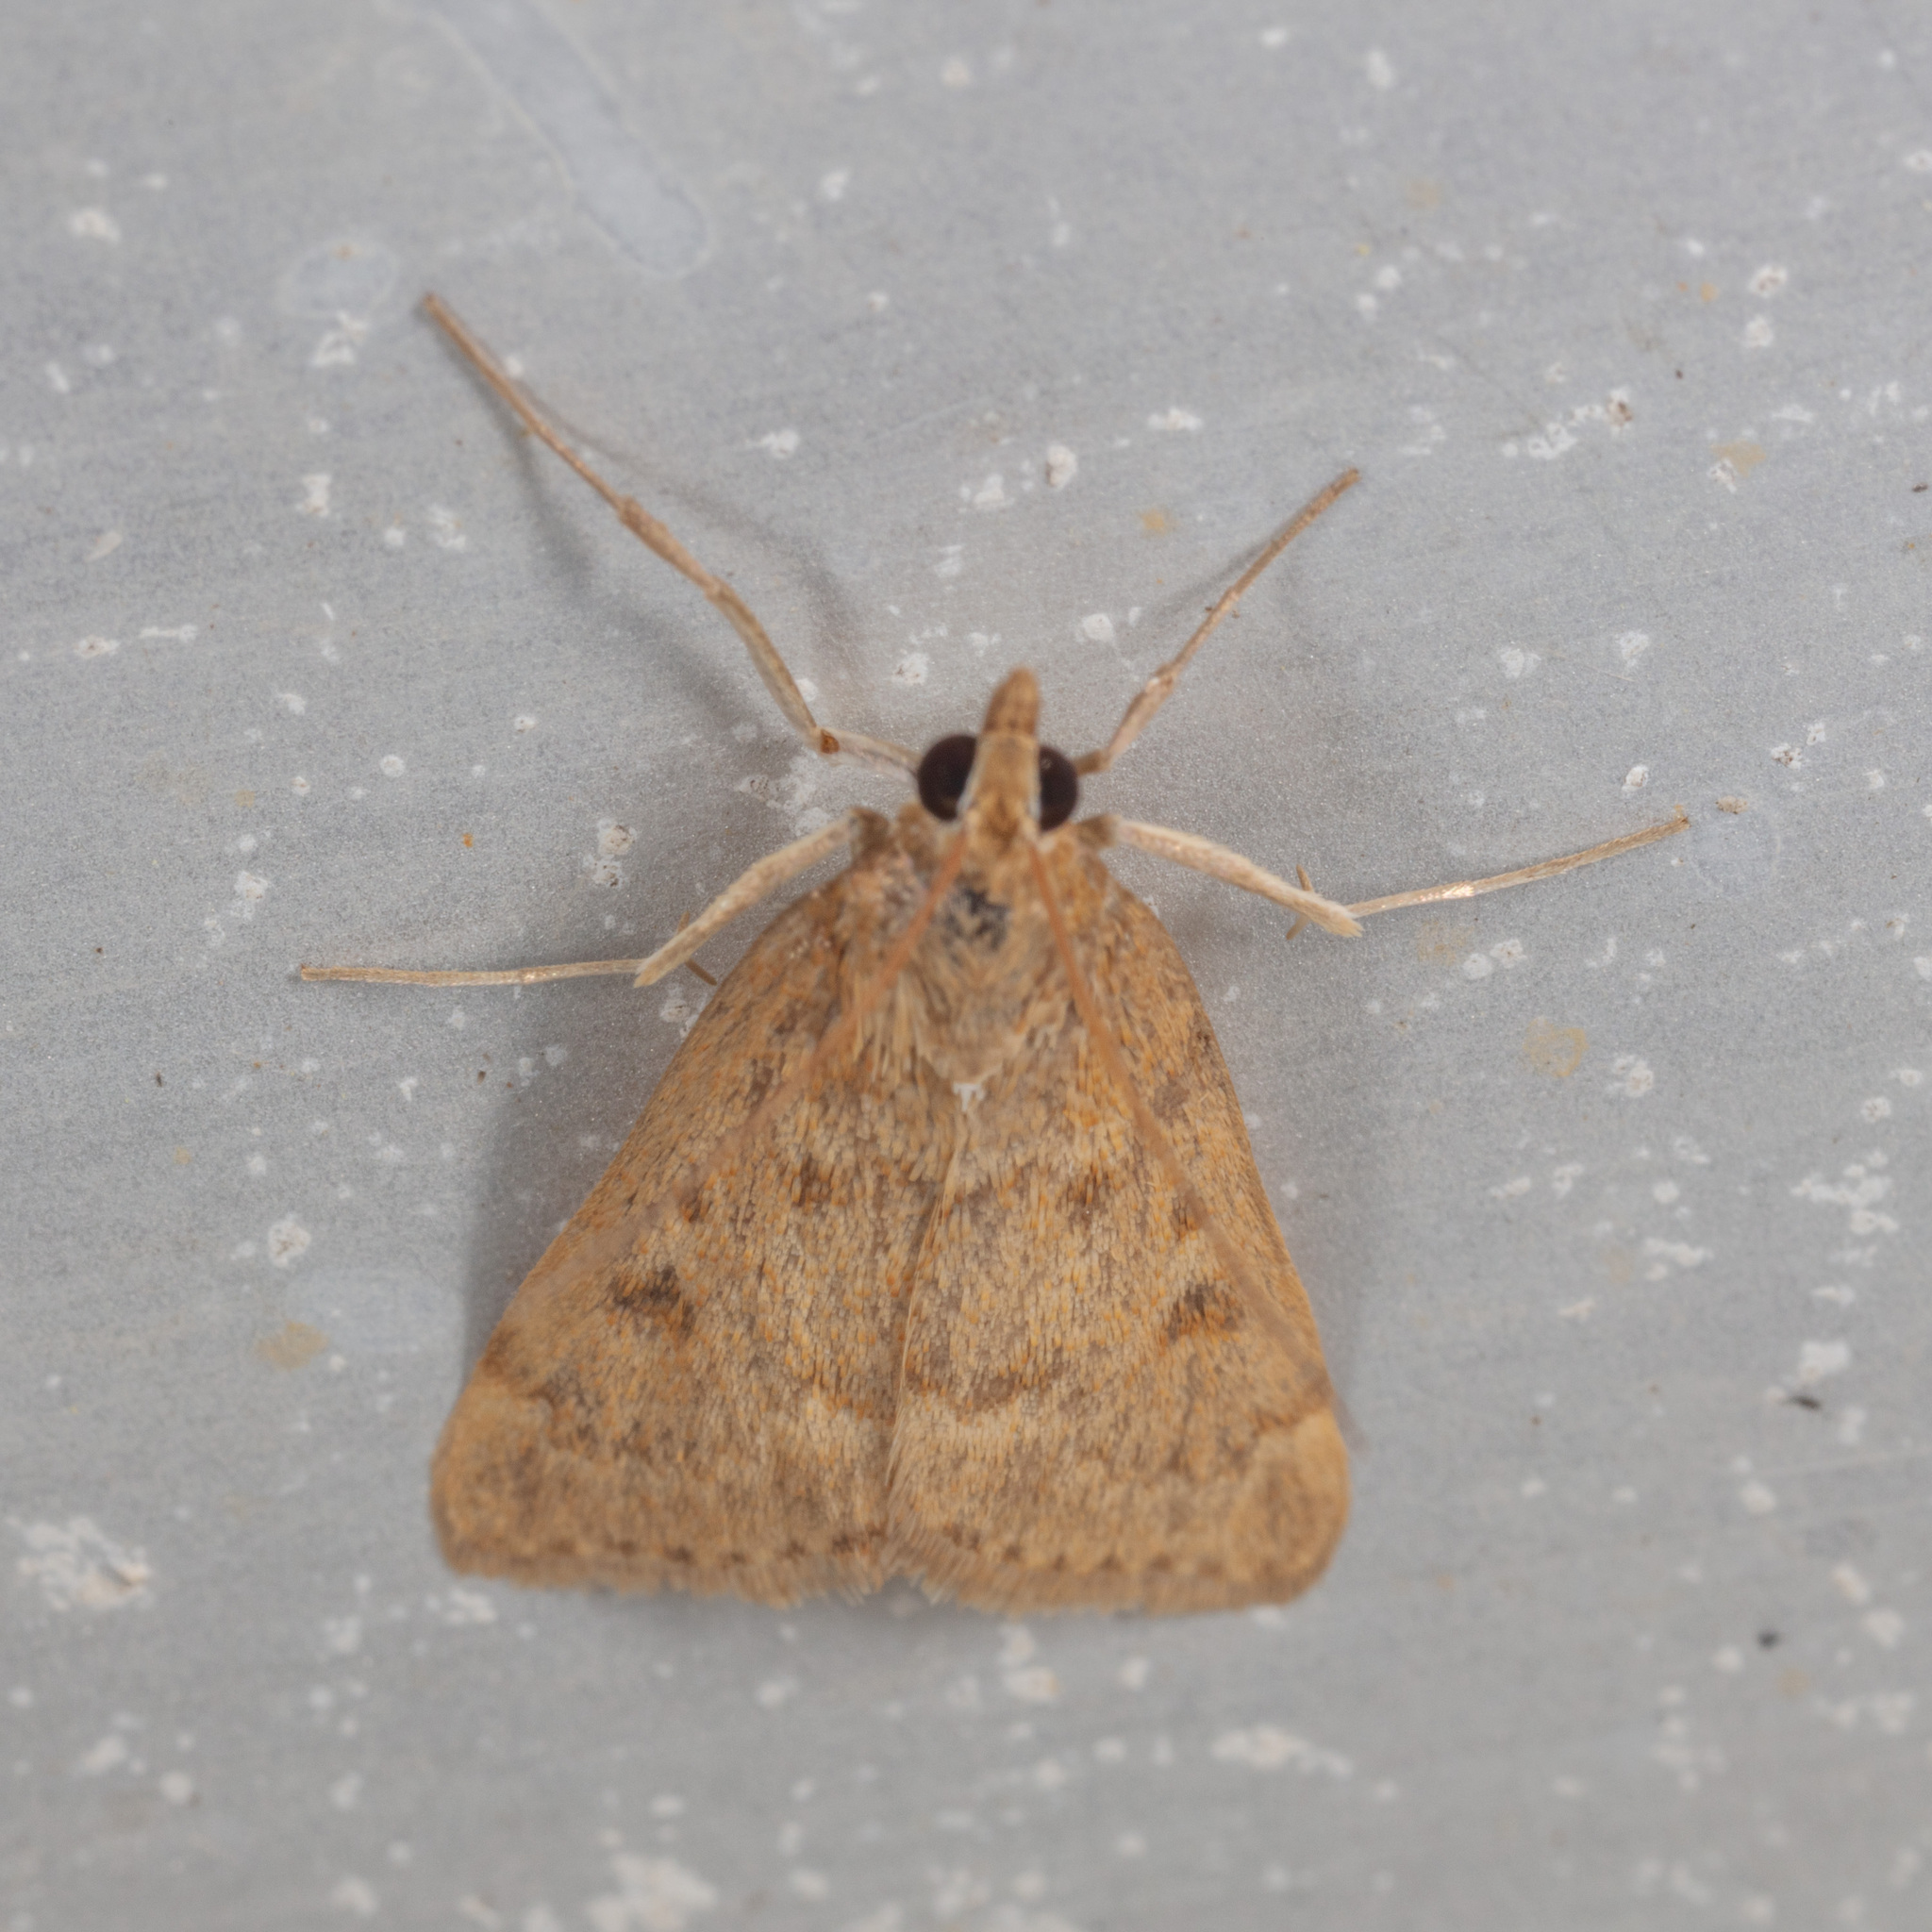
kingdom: Animalia
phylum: Arthropoda
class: Insecta
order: Lepidoptera
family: Crambidae
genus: Achyra
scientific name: Achyra rantalis
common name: Garden webworm
